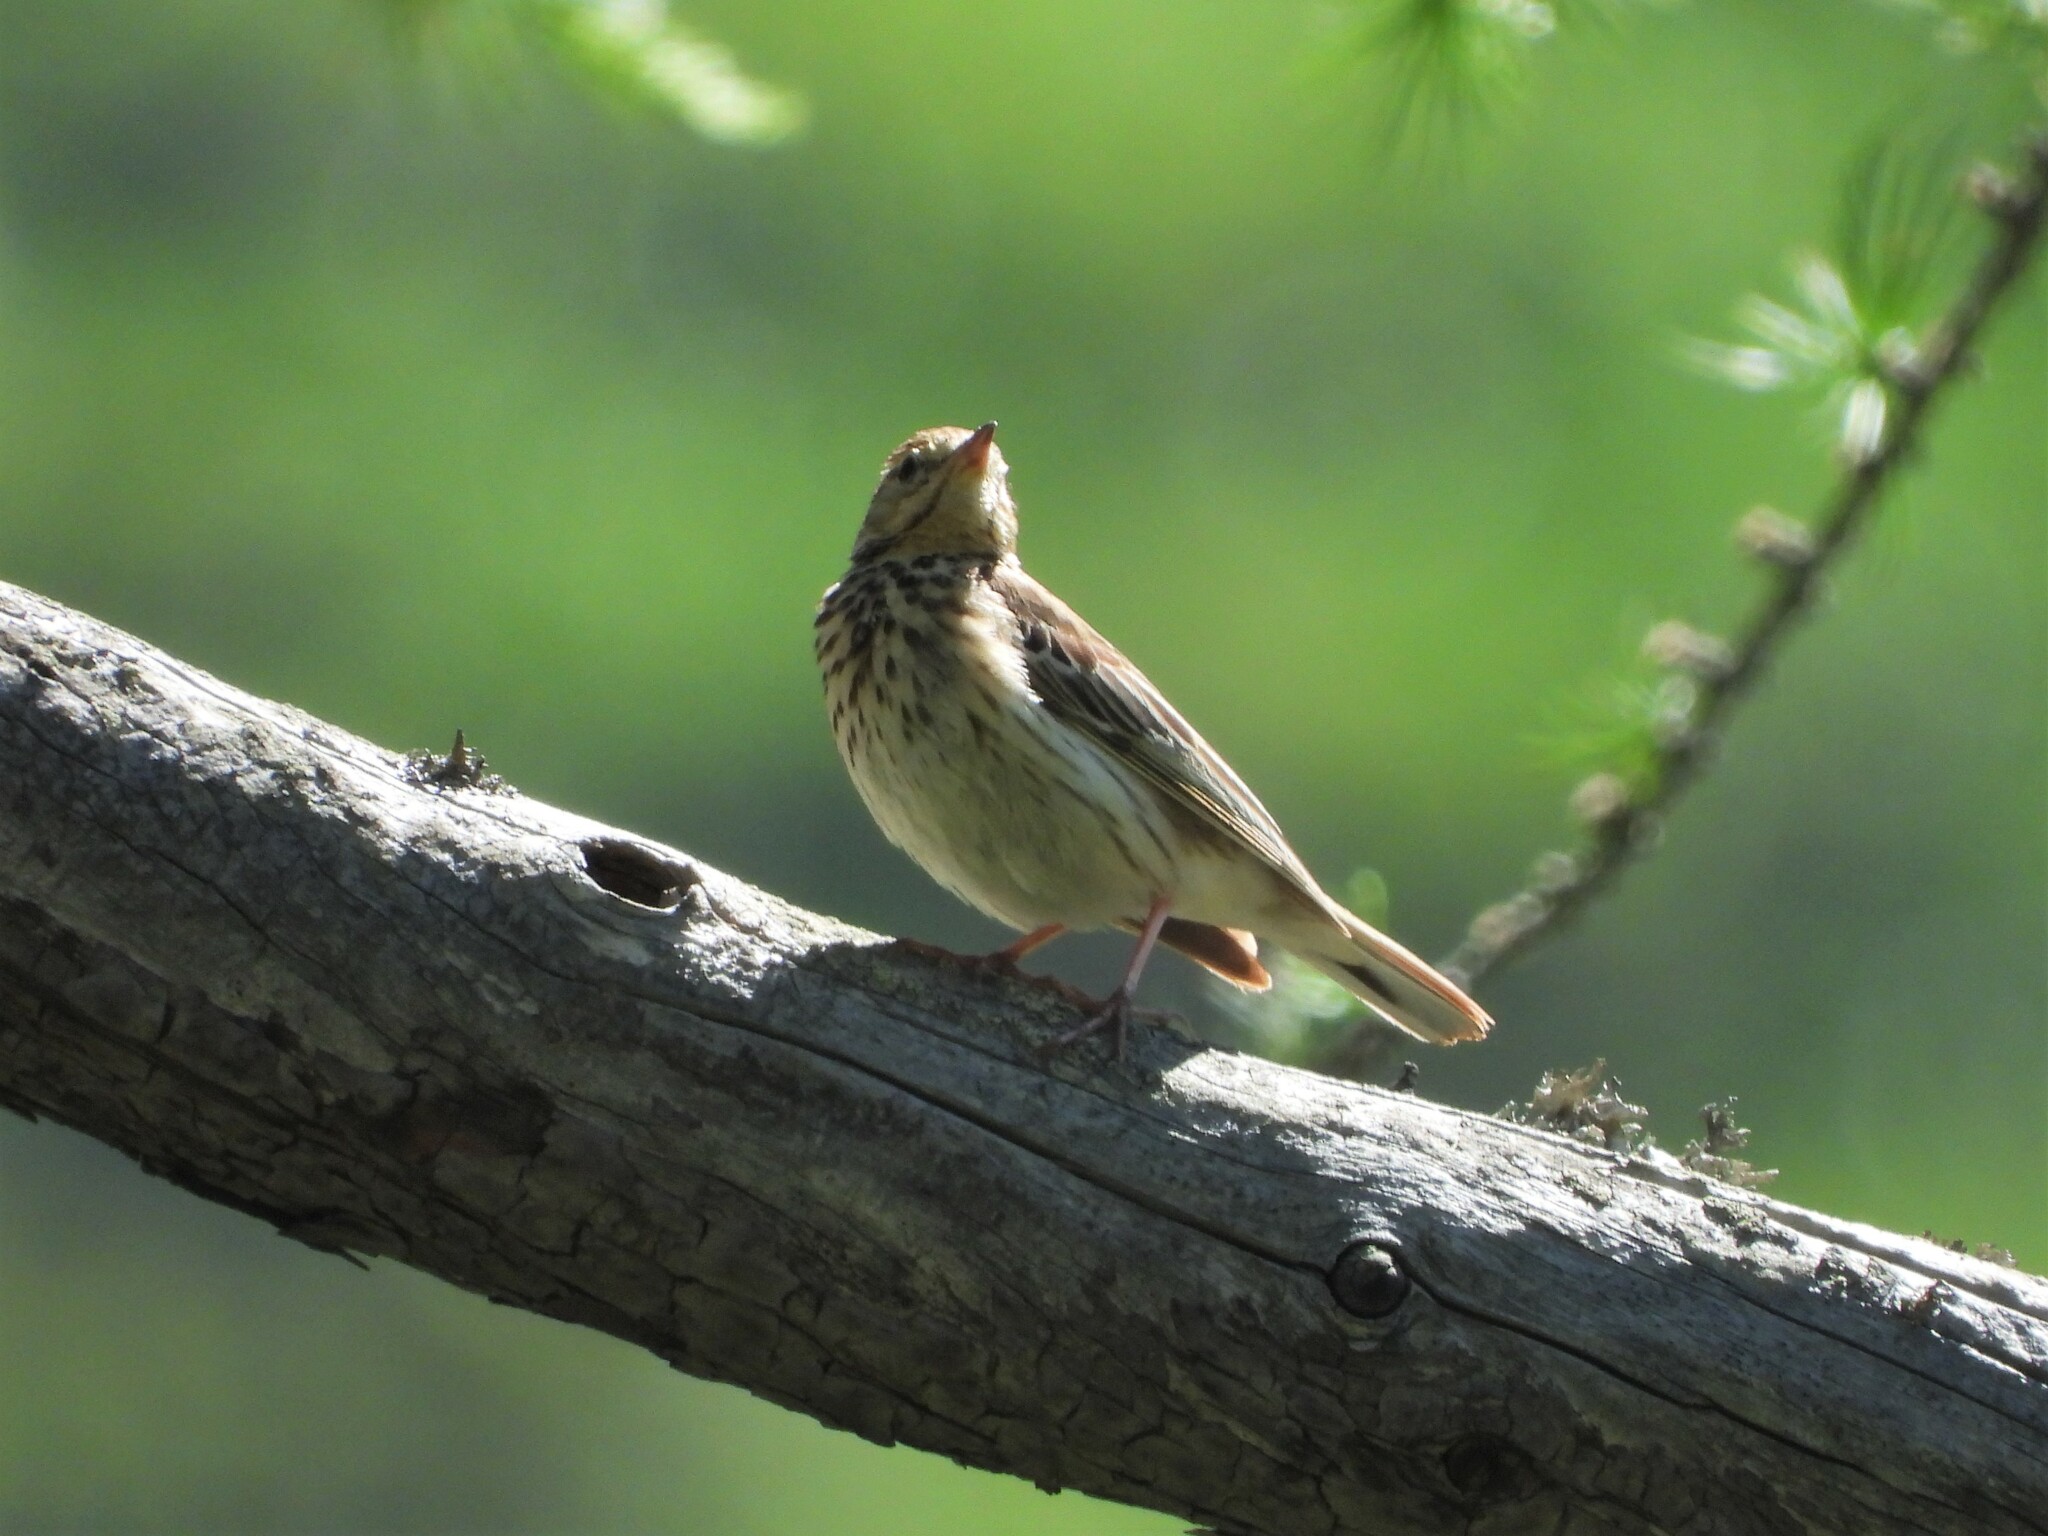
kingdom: Animalia
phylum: Chordata
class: Aves
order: Passeriformes
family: Motacillidae
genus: Anthus
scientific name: Anthus trivialis
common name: Tree pipit
